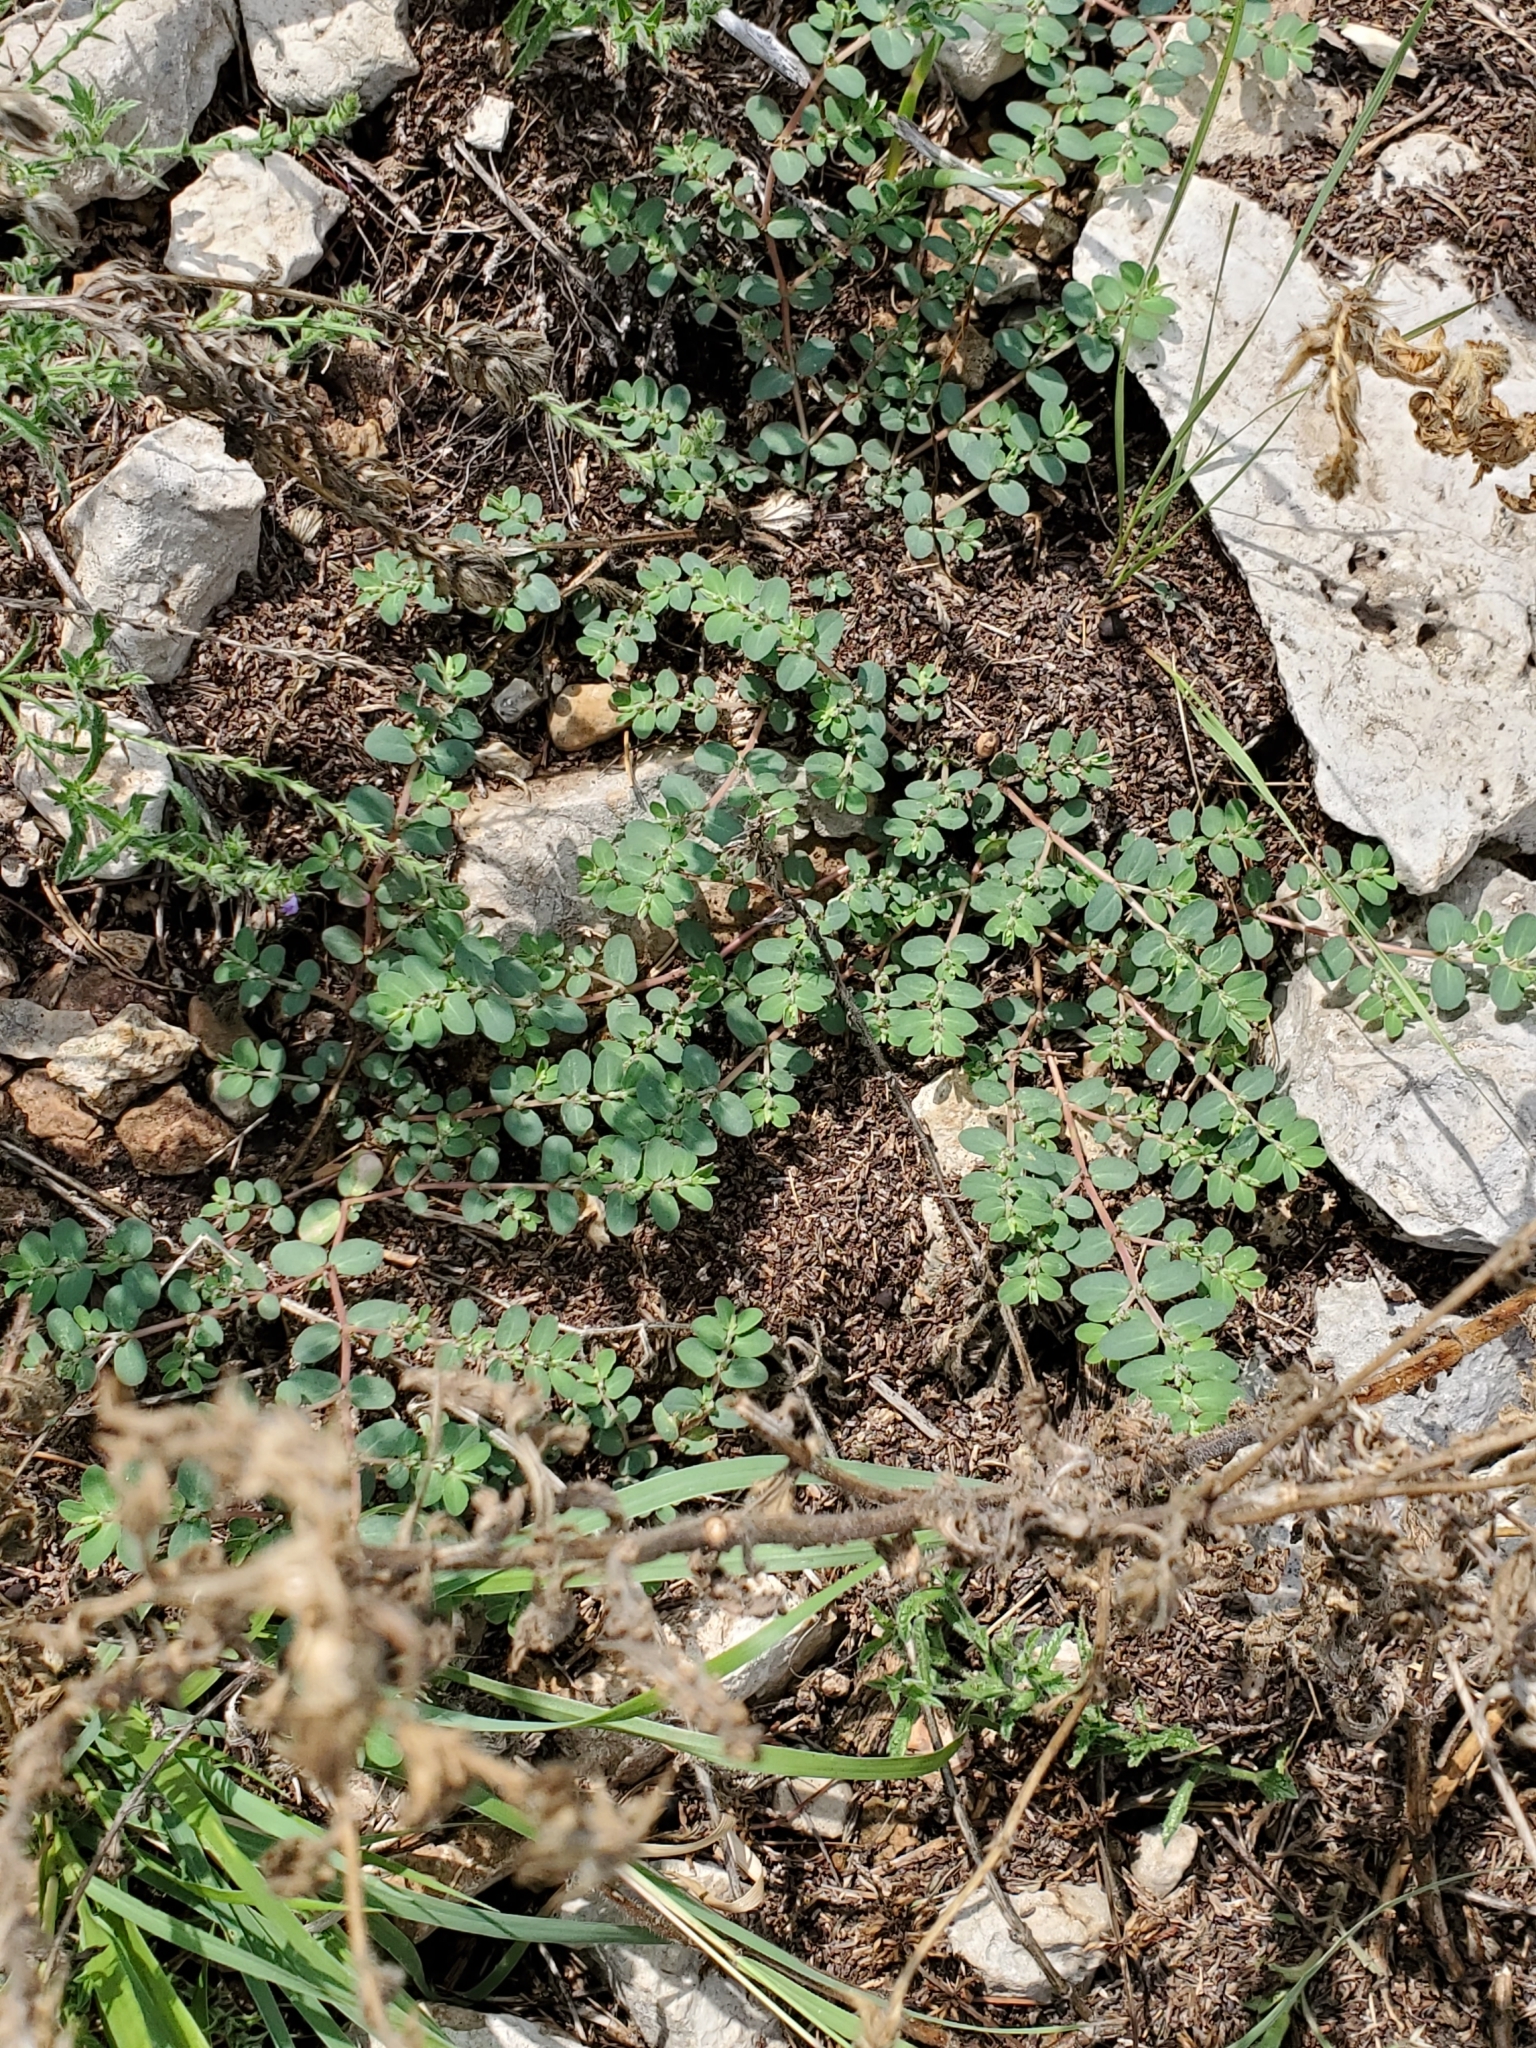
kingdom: Plantae
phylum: Tracheophyta
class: Magnoliopsida
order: Malpighiales
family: Euphorbiaceae
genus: Euphorbia
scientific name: Euphorbia prostrata
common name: Prostrate sandmat
